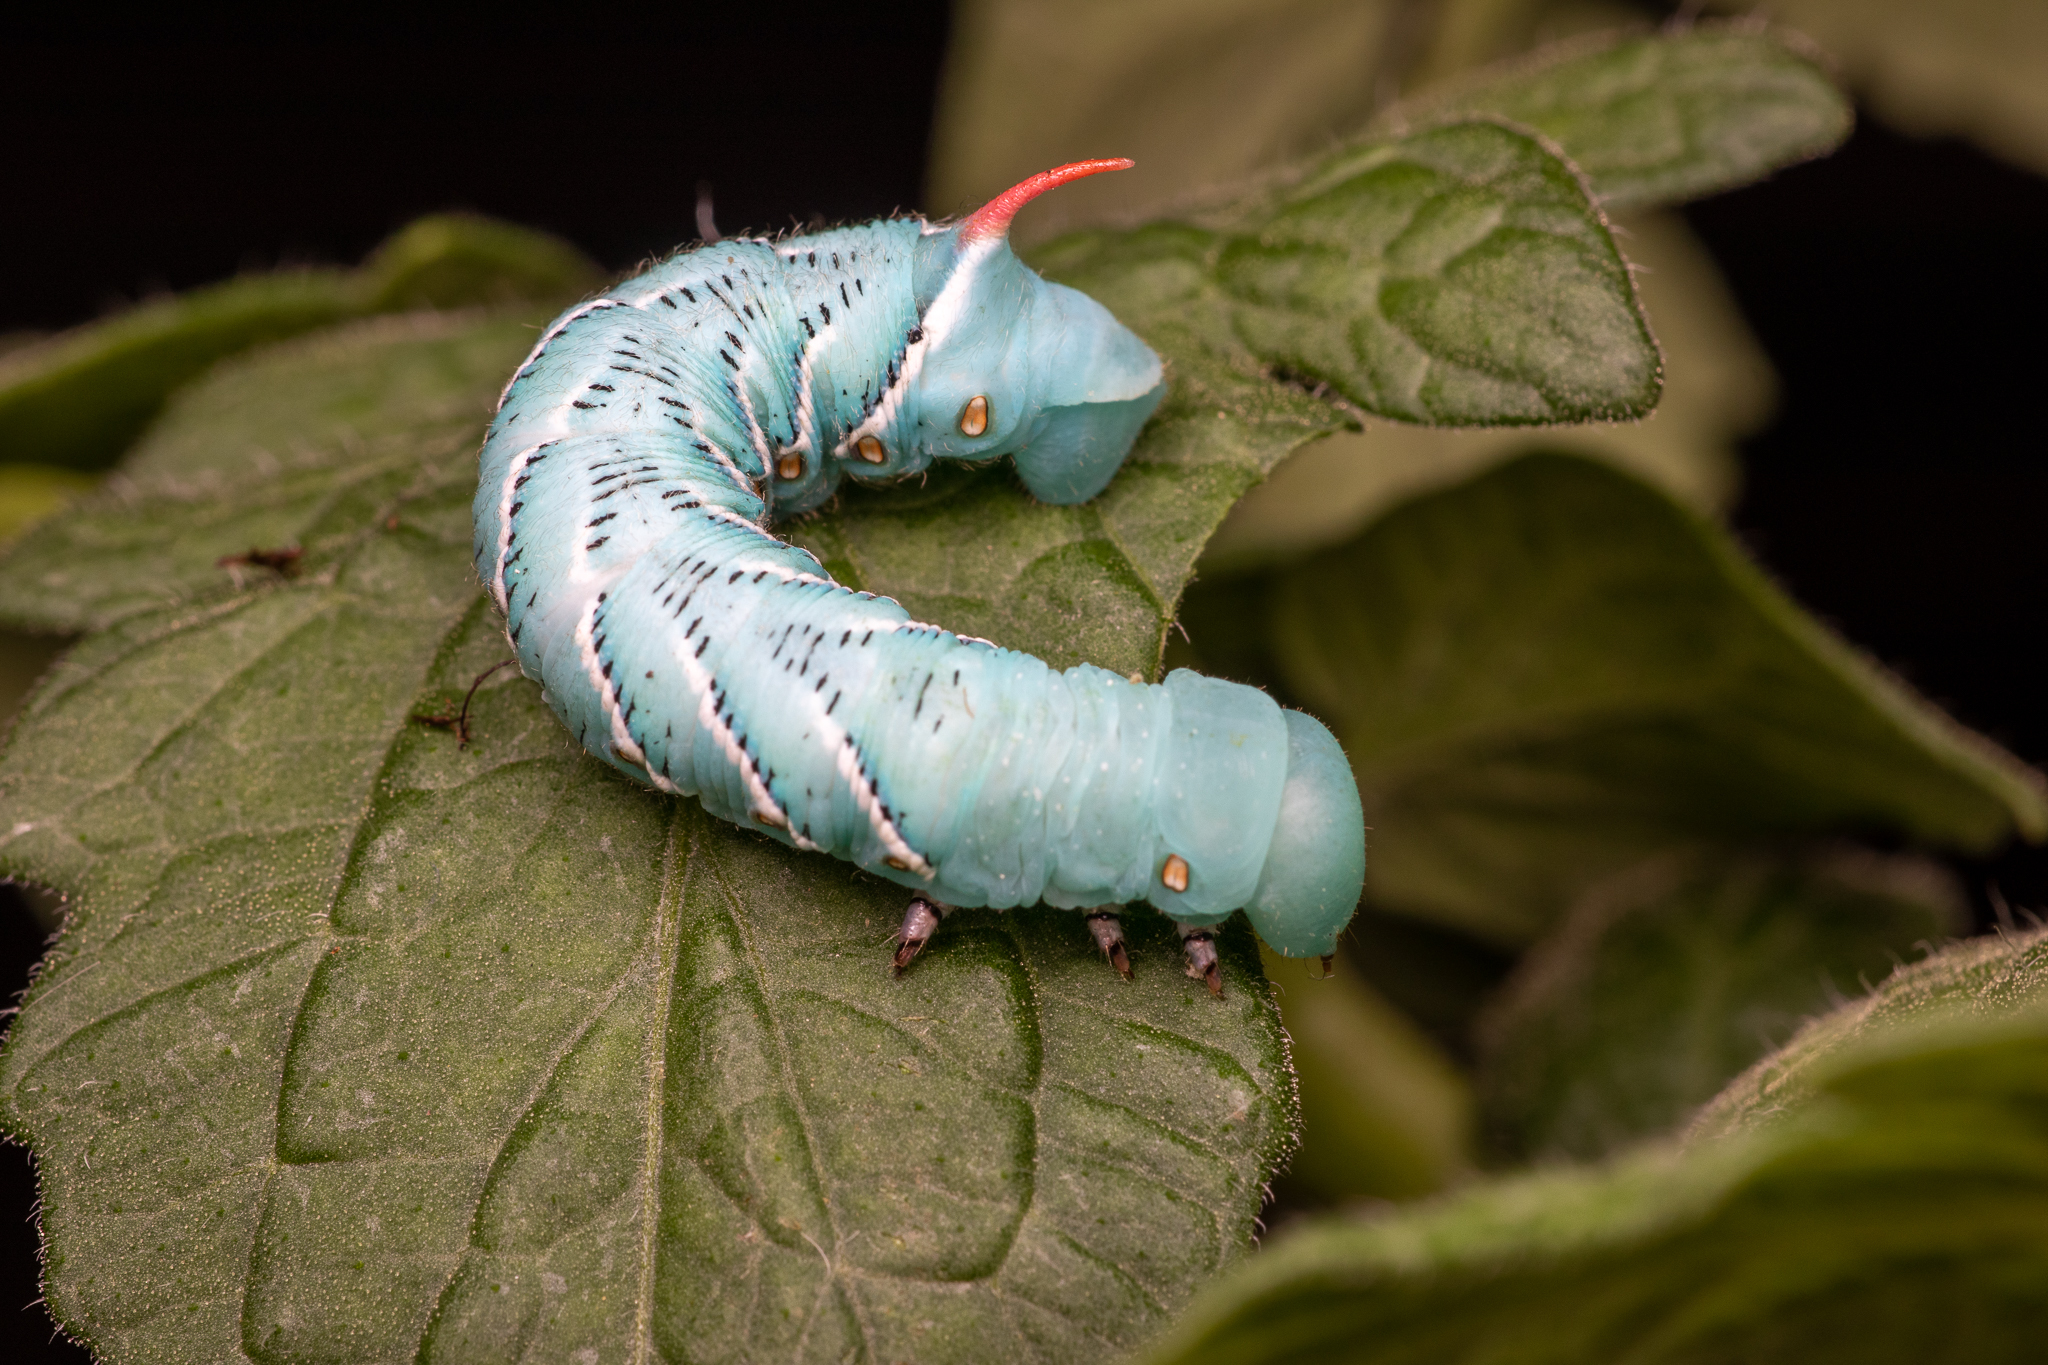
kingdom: Animalia
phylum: Arthropoda
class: Insecta
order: Lepidoptera
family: Sphingidae
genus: Manduca
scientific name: Manduca sexta
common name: Carolina sphinx
